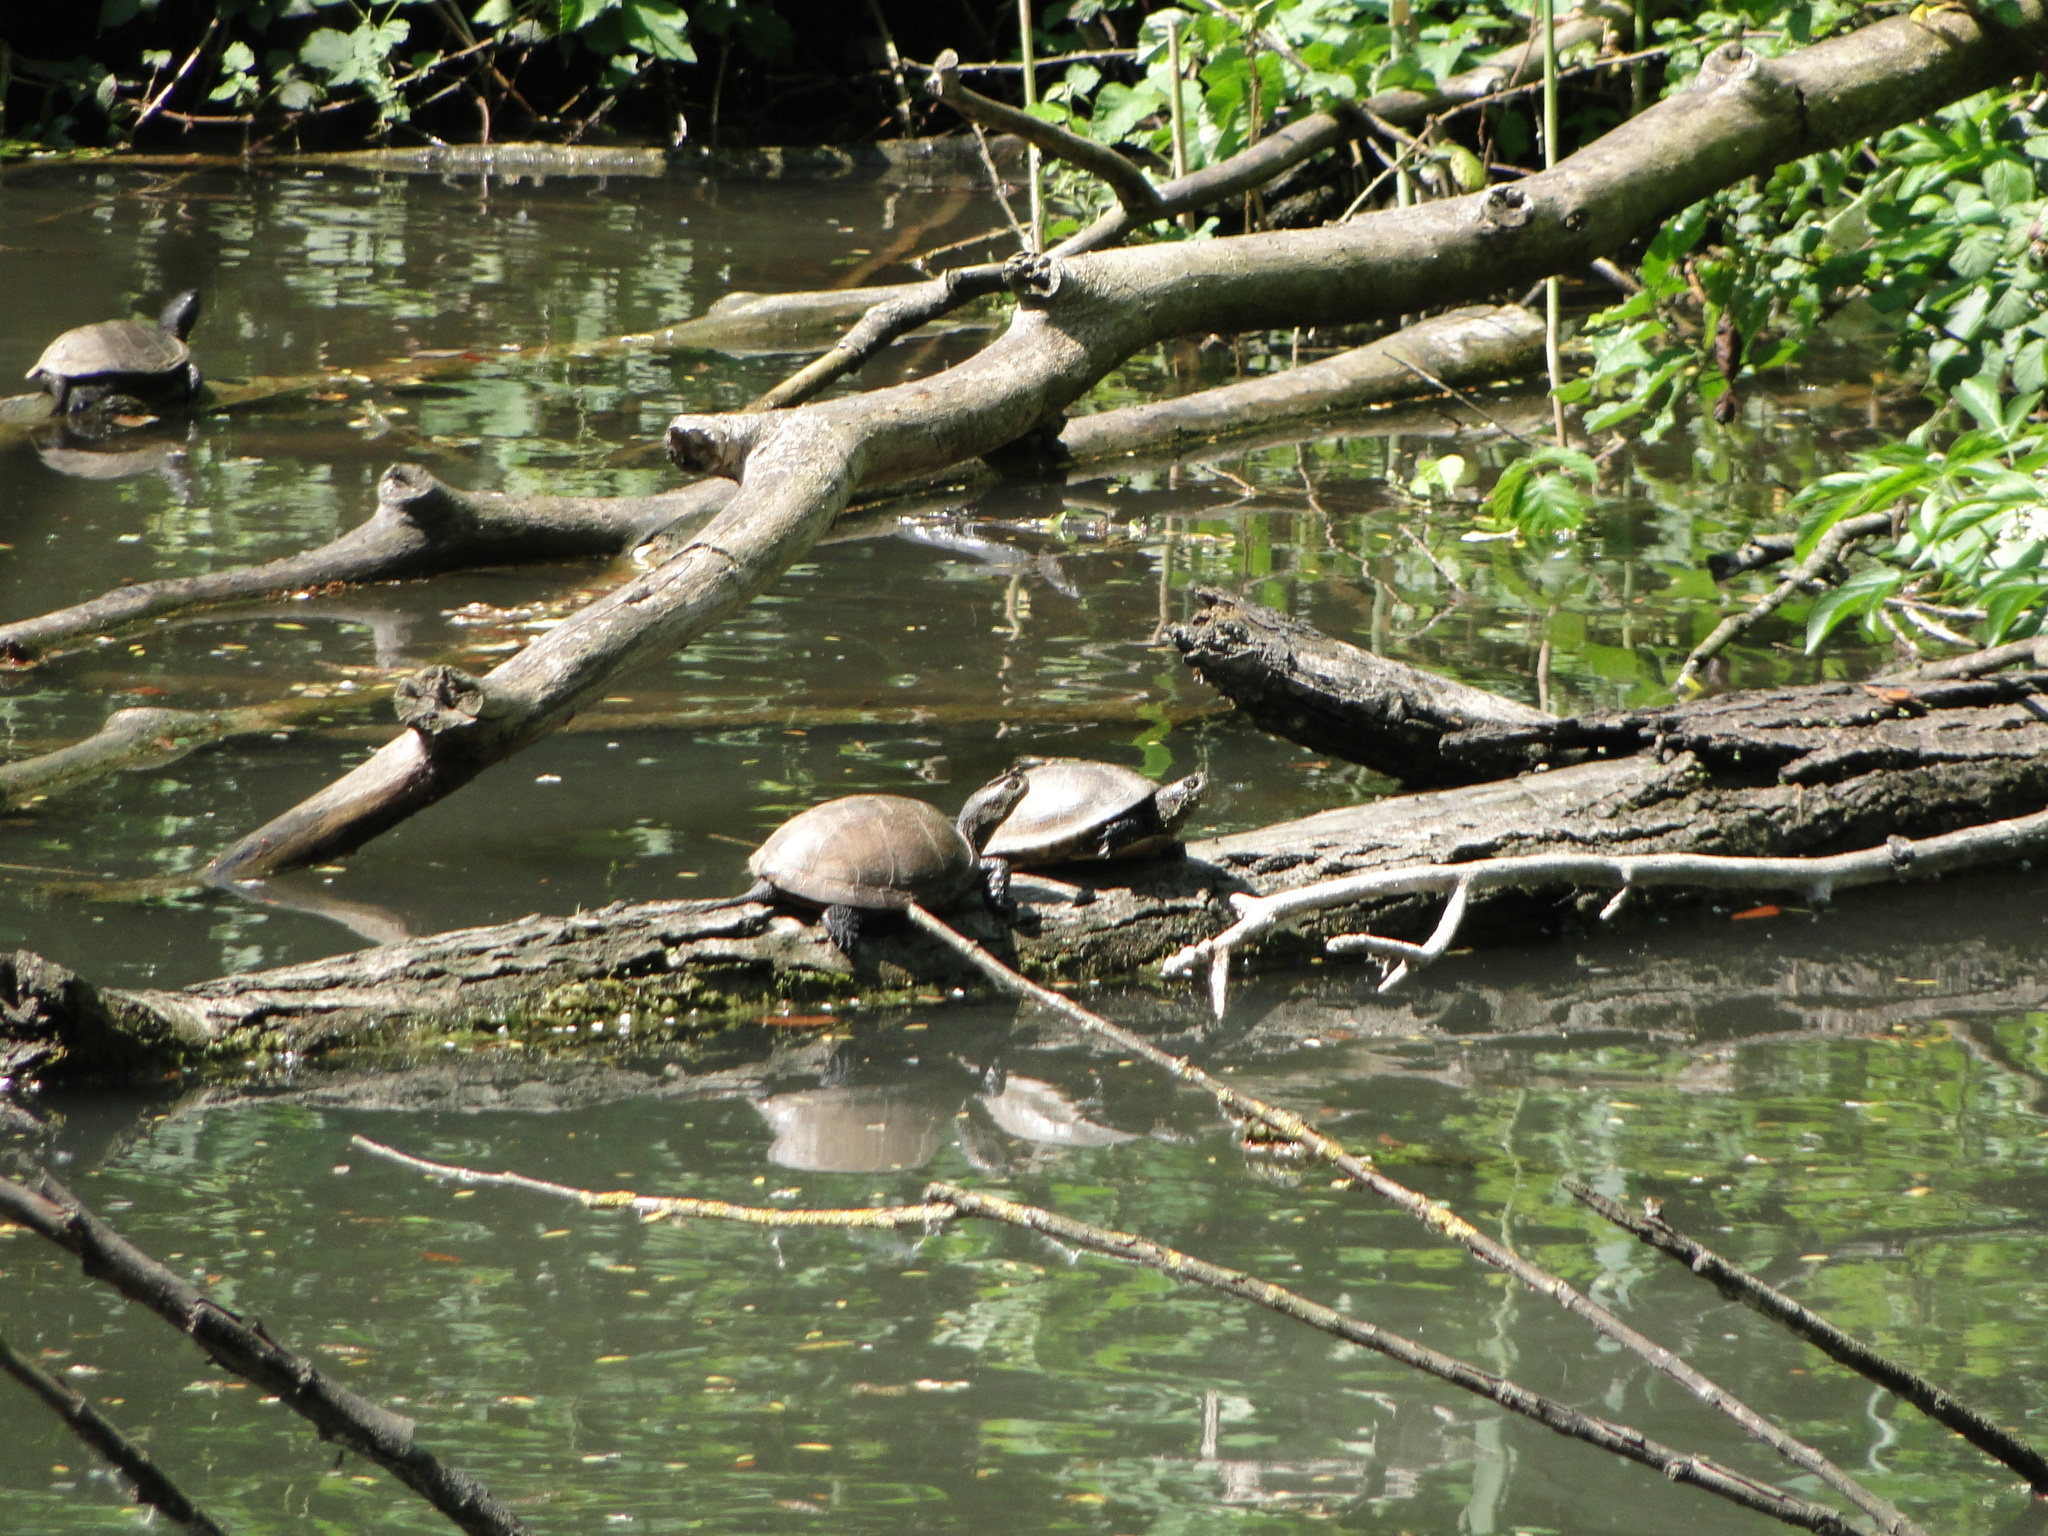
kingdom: Animalia
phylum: Chordata
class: Testudines
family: Emydidae
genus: Emys
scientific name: Emys orbicularis
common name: European pond turtle
